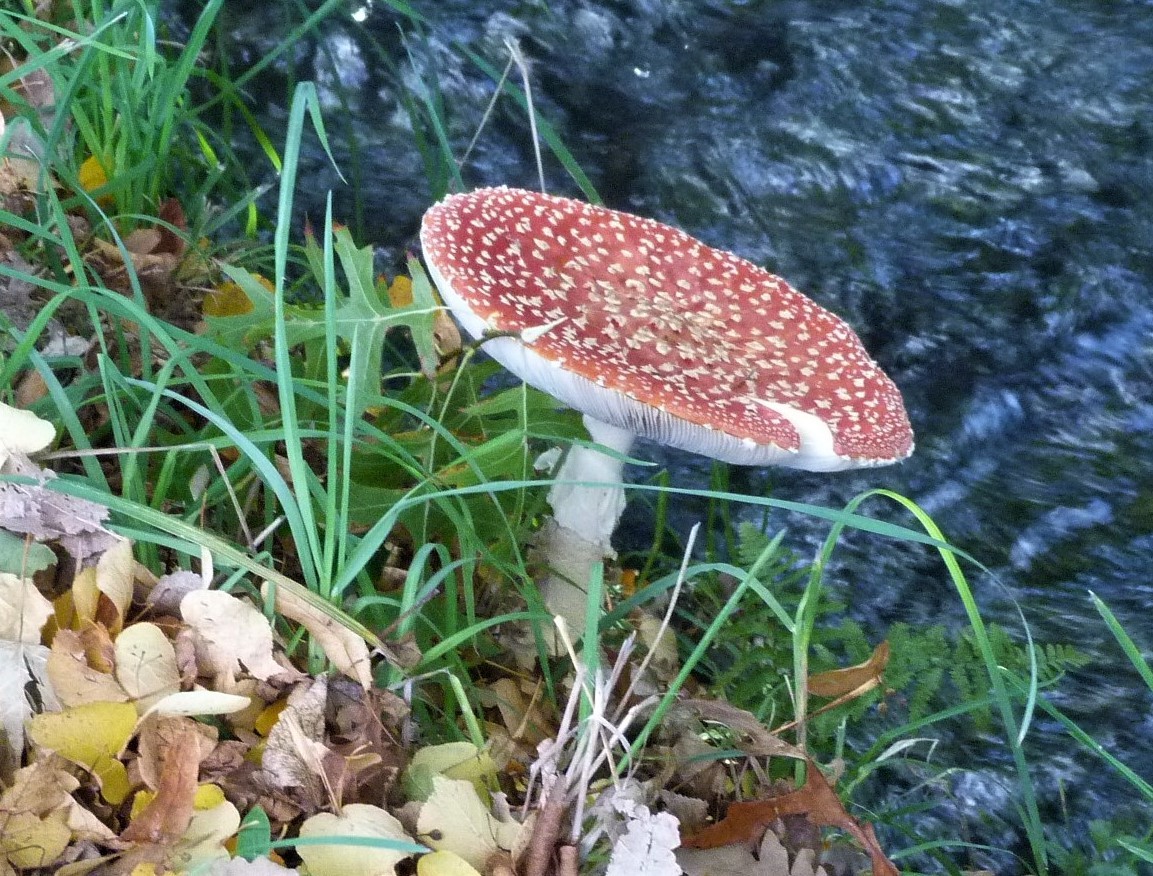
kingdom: Fungi
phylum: Basidiomycota
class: Agaricomycetes
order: Agaricales
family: Amanitaceae
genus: Amanita
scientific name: Amanita muscaria
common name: Fly agaric
